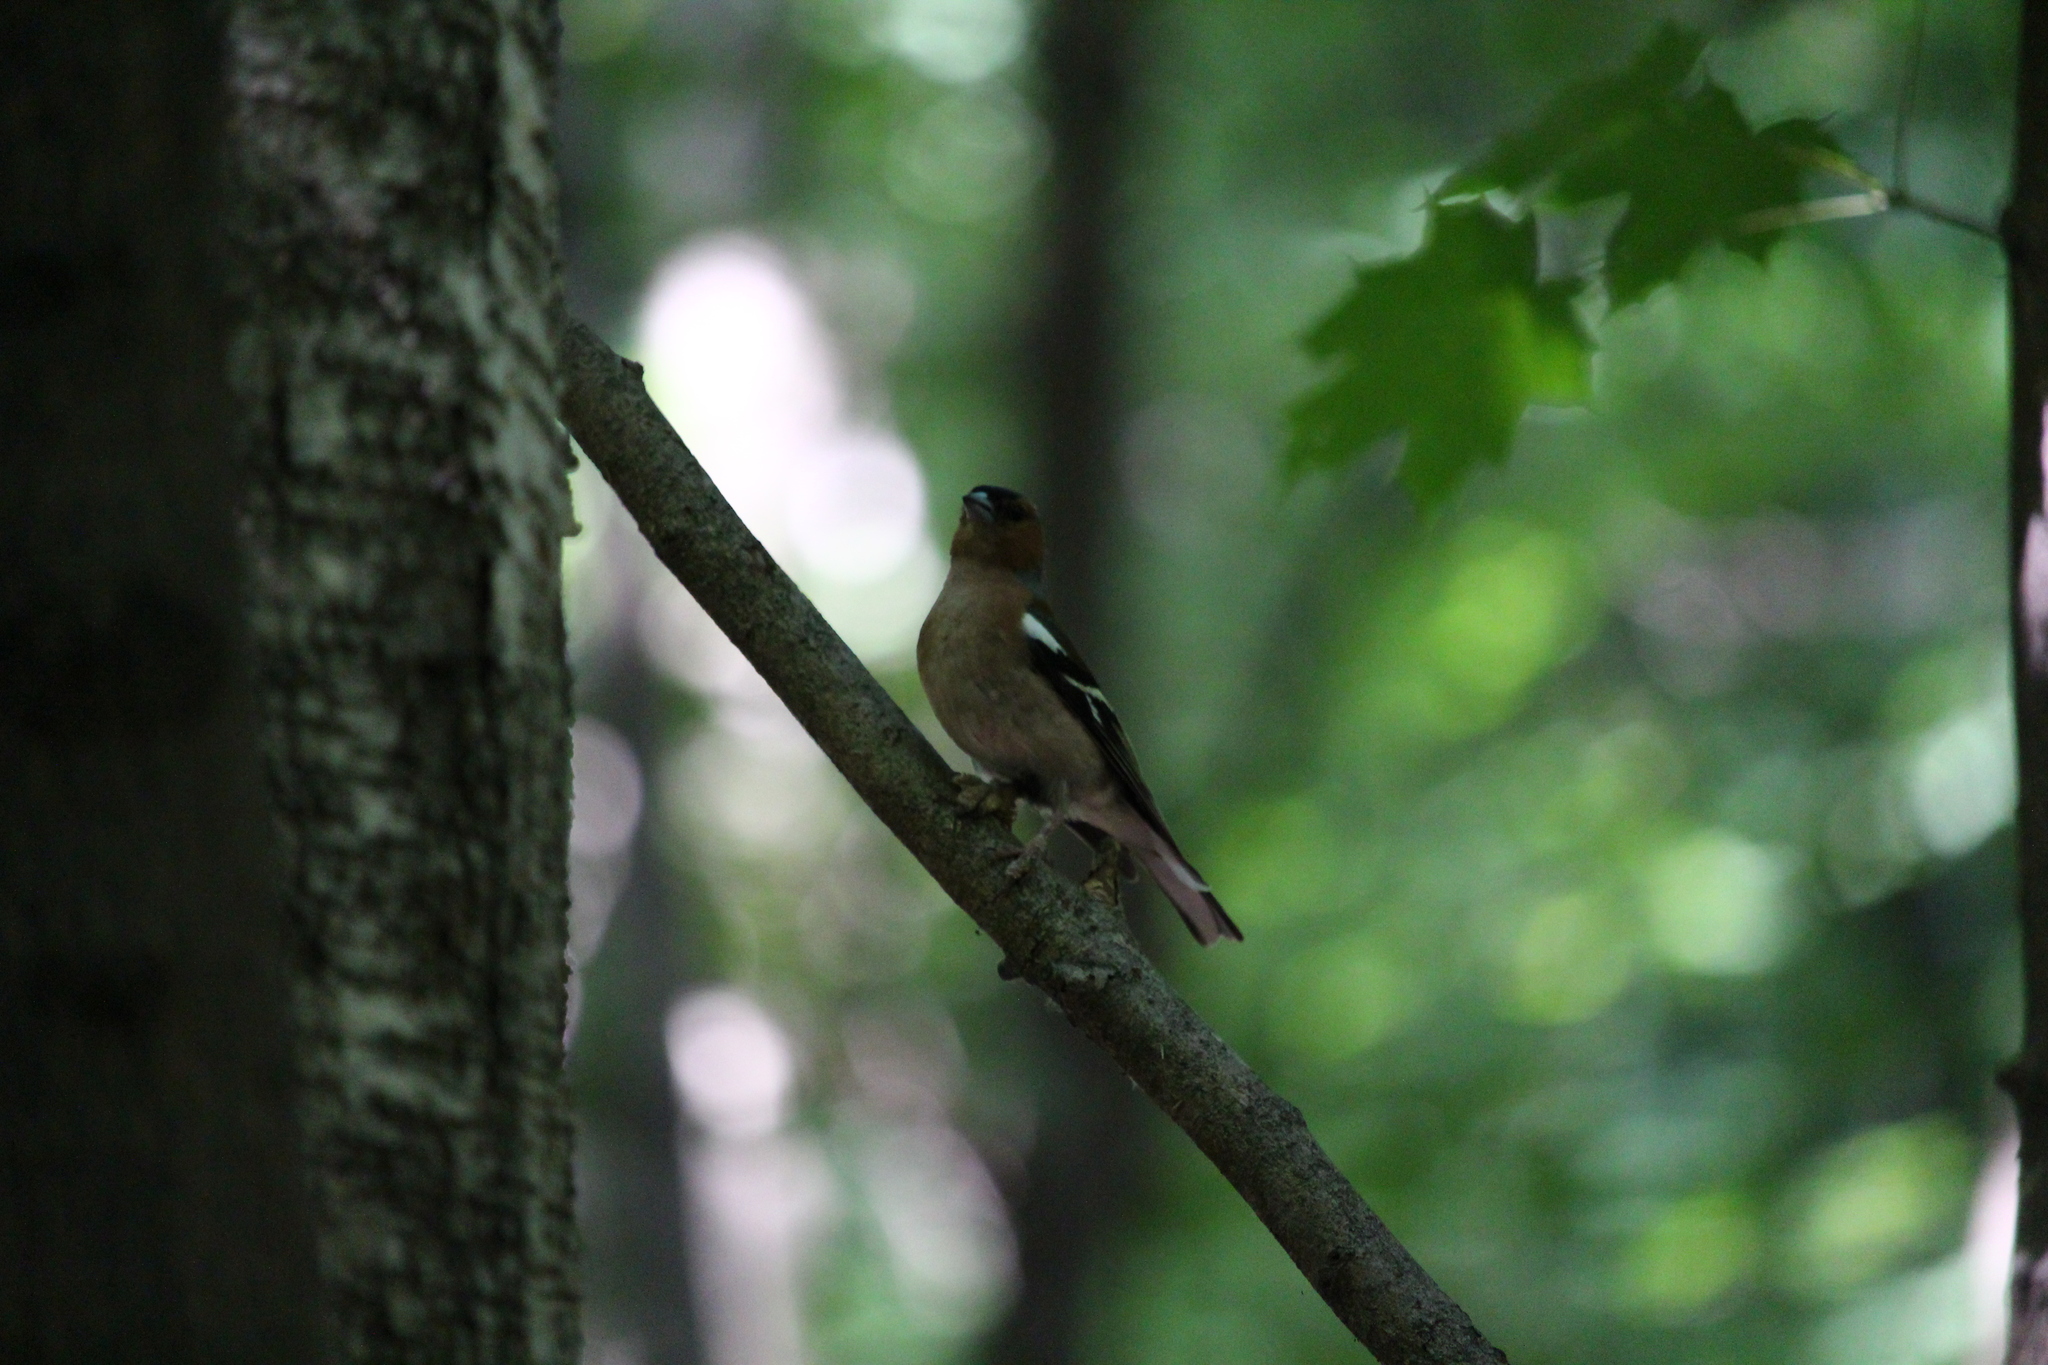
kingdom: Animalia
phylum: Chordata
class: Aves
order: Passeriformes
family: Fringillidae
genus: Fringilla
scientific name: Fringilla coelebs
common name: Common chaffinch
